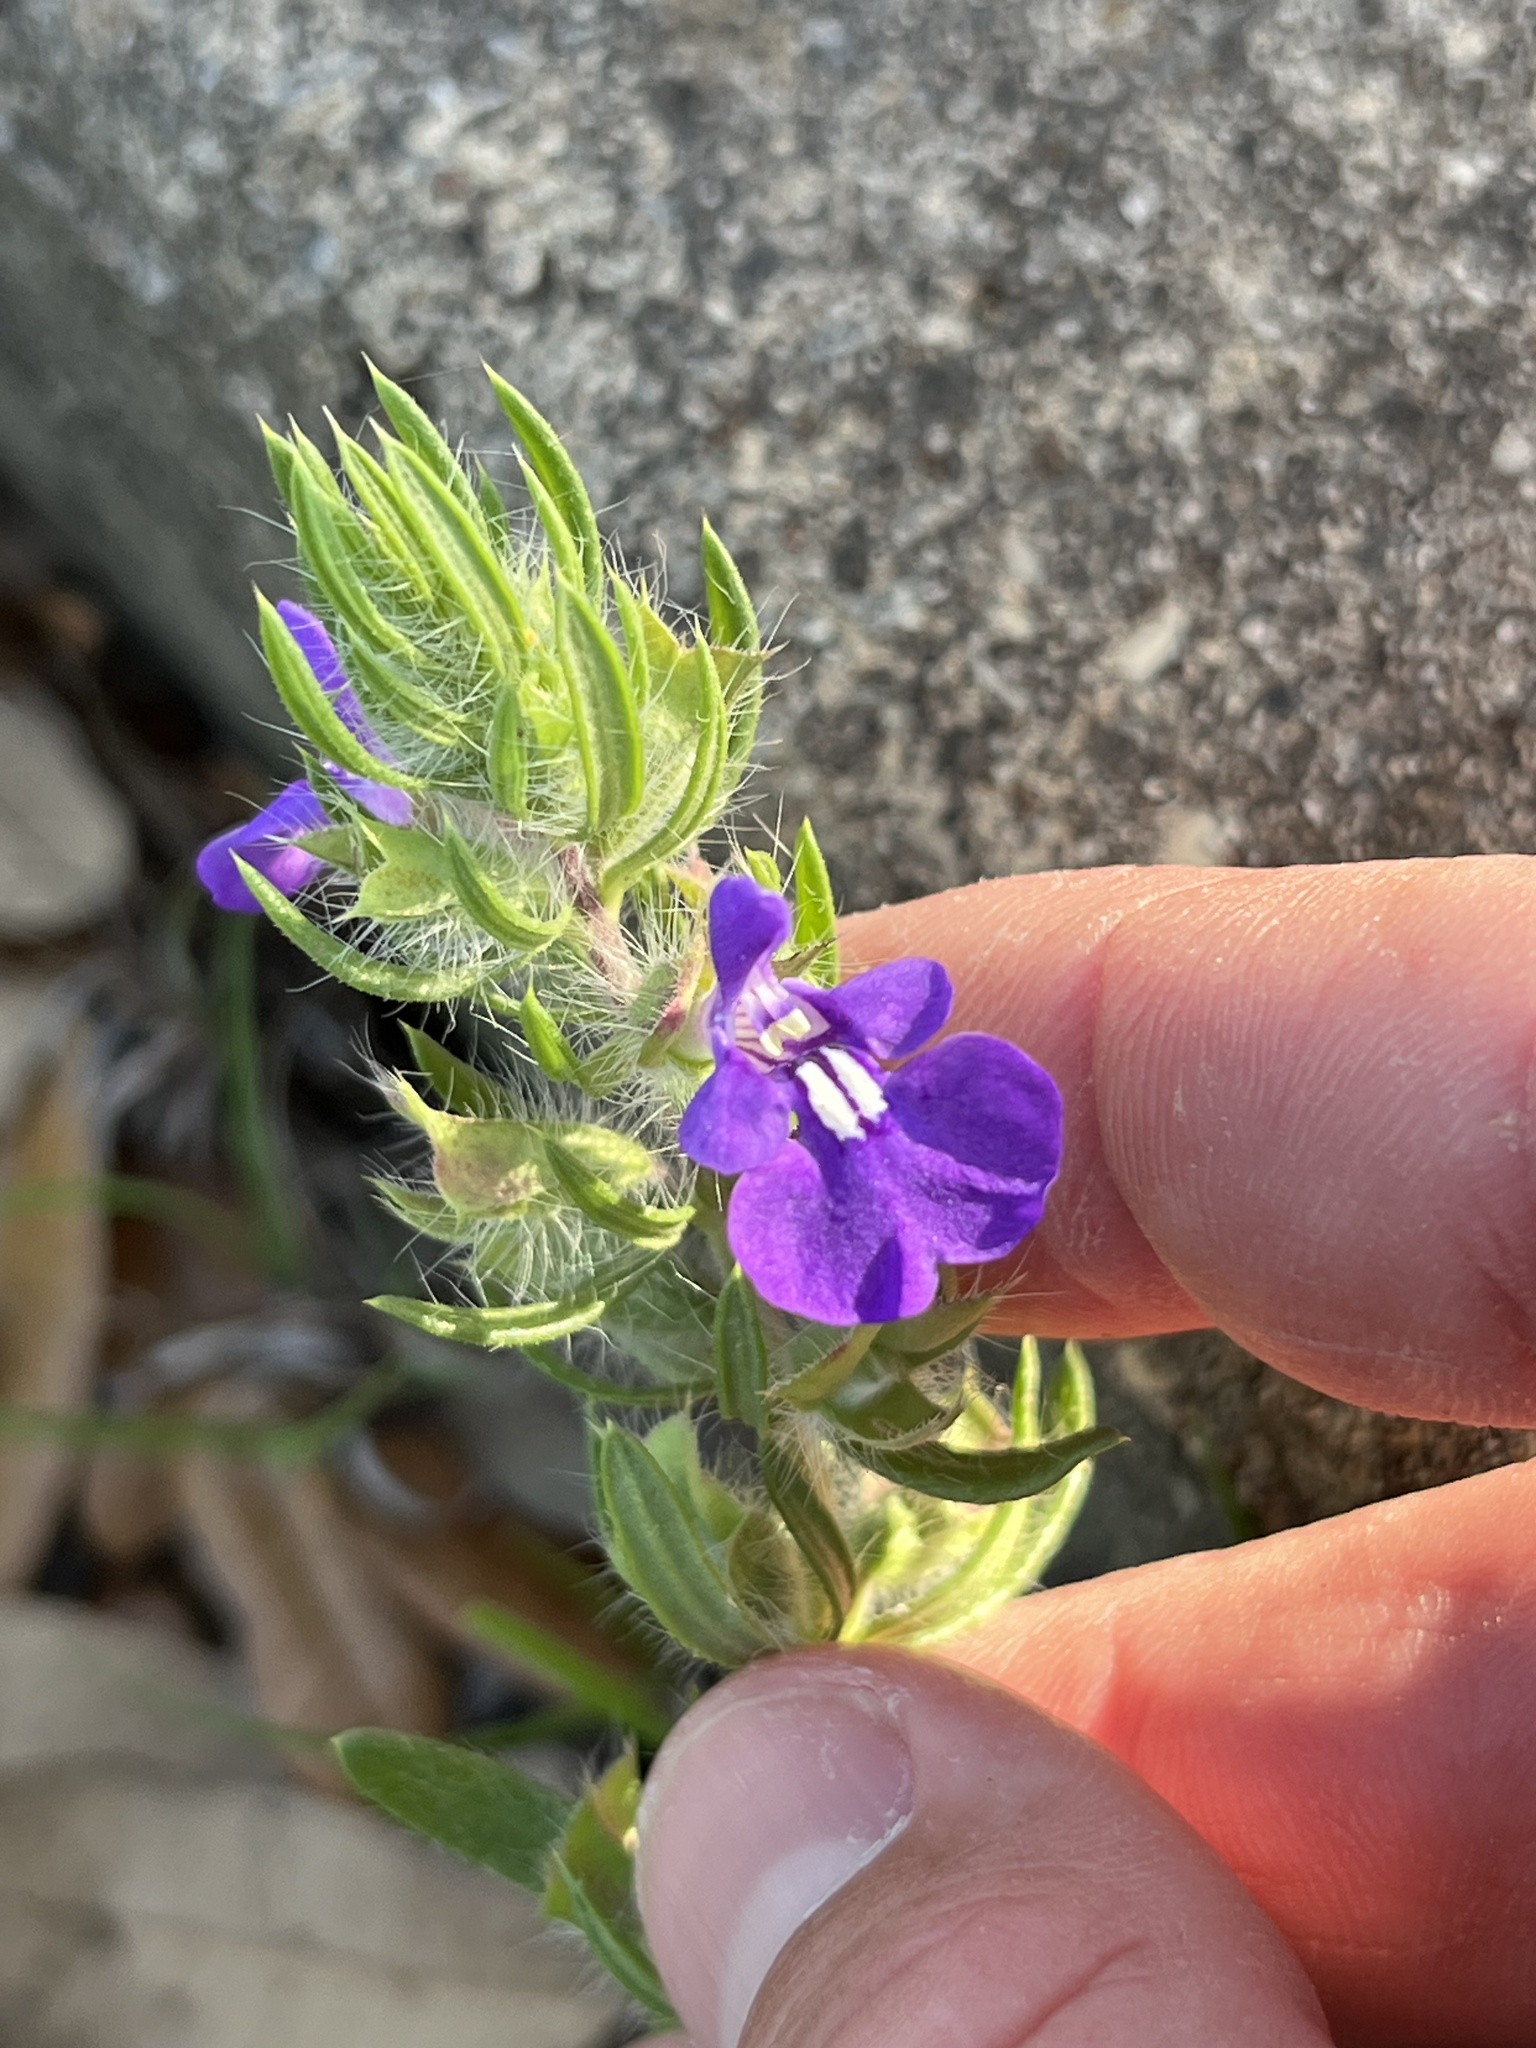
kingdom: Plantae
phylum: Tracheophyta
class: Magnoliopsida
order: Lamiales
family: Lamiaceae
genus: Salvia
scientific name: Salvia texana
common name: Texas sage
